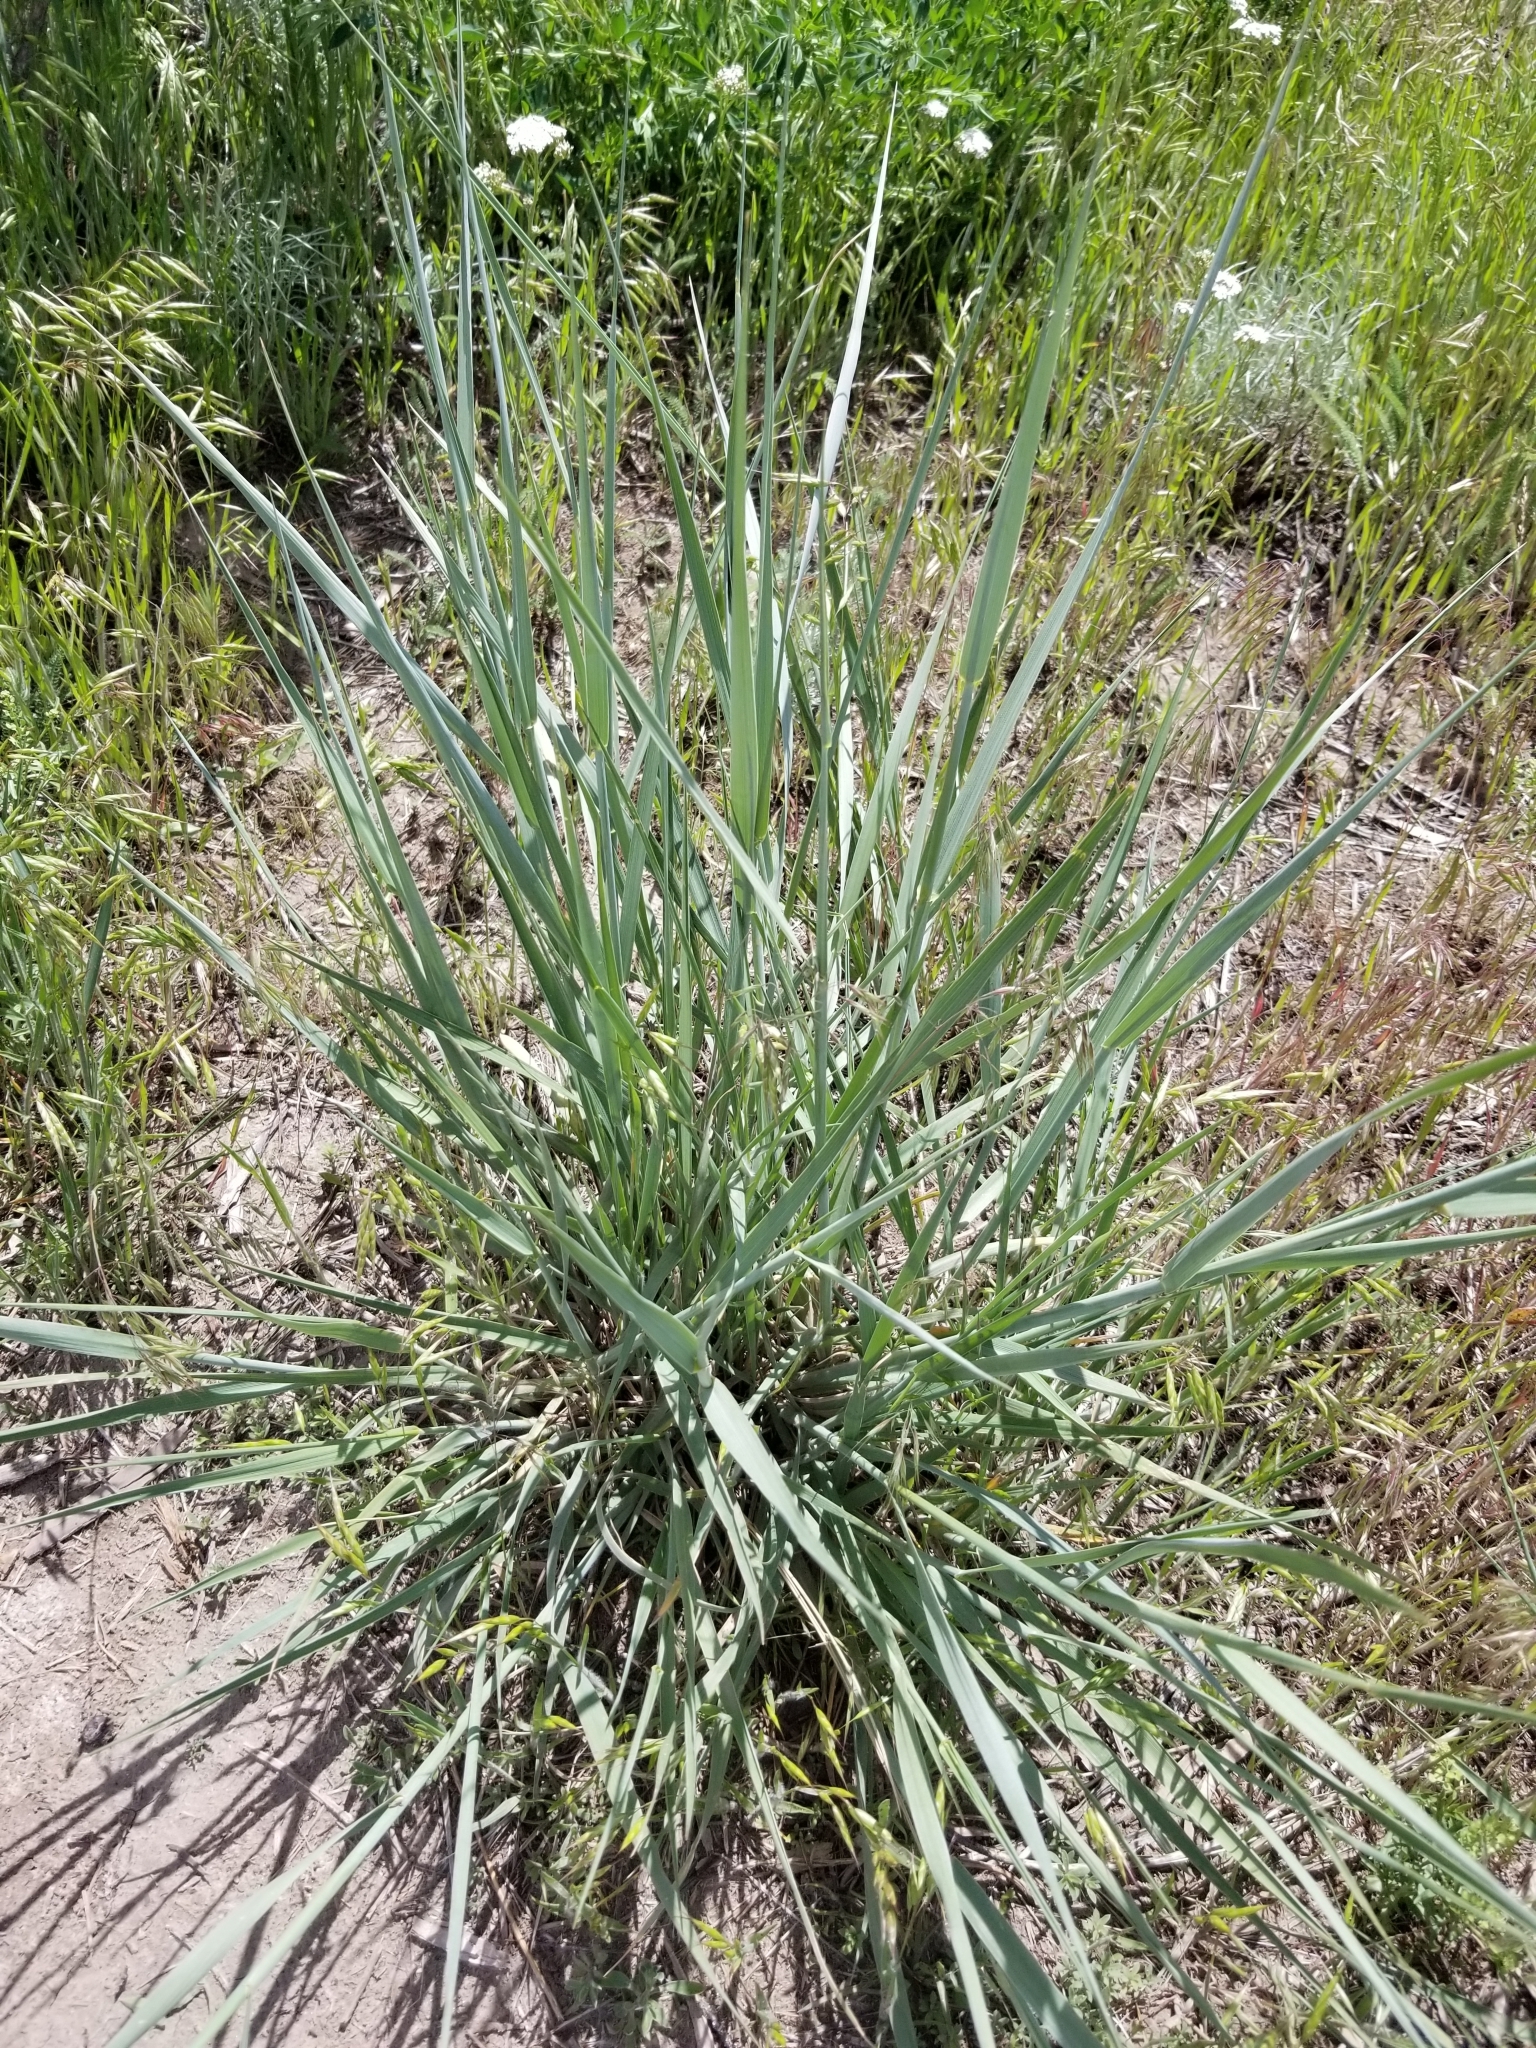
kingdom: Plantae
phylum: Tracheophyta
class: Liliopsida
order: Poales
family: Poaceae
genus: Leymus
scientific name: Leymus cinereus
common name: Basin wild rye
